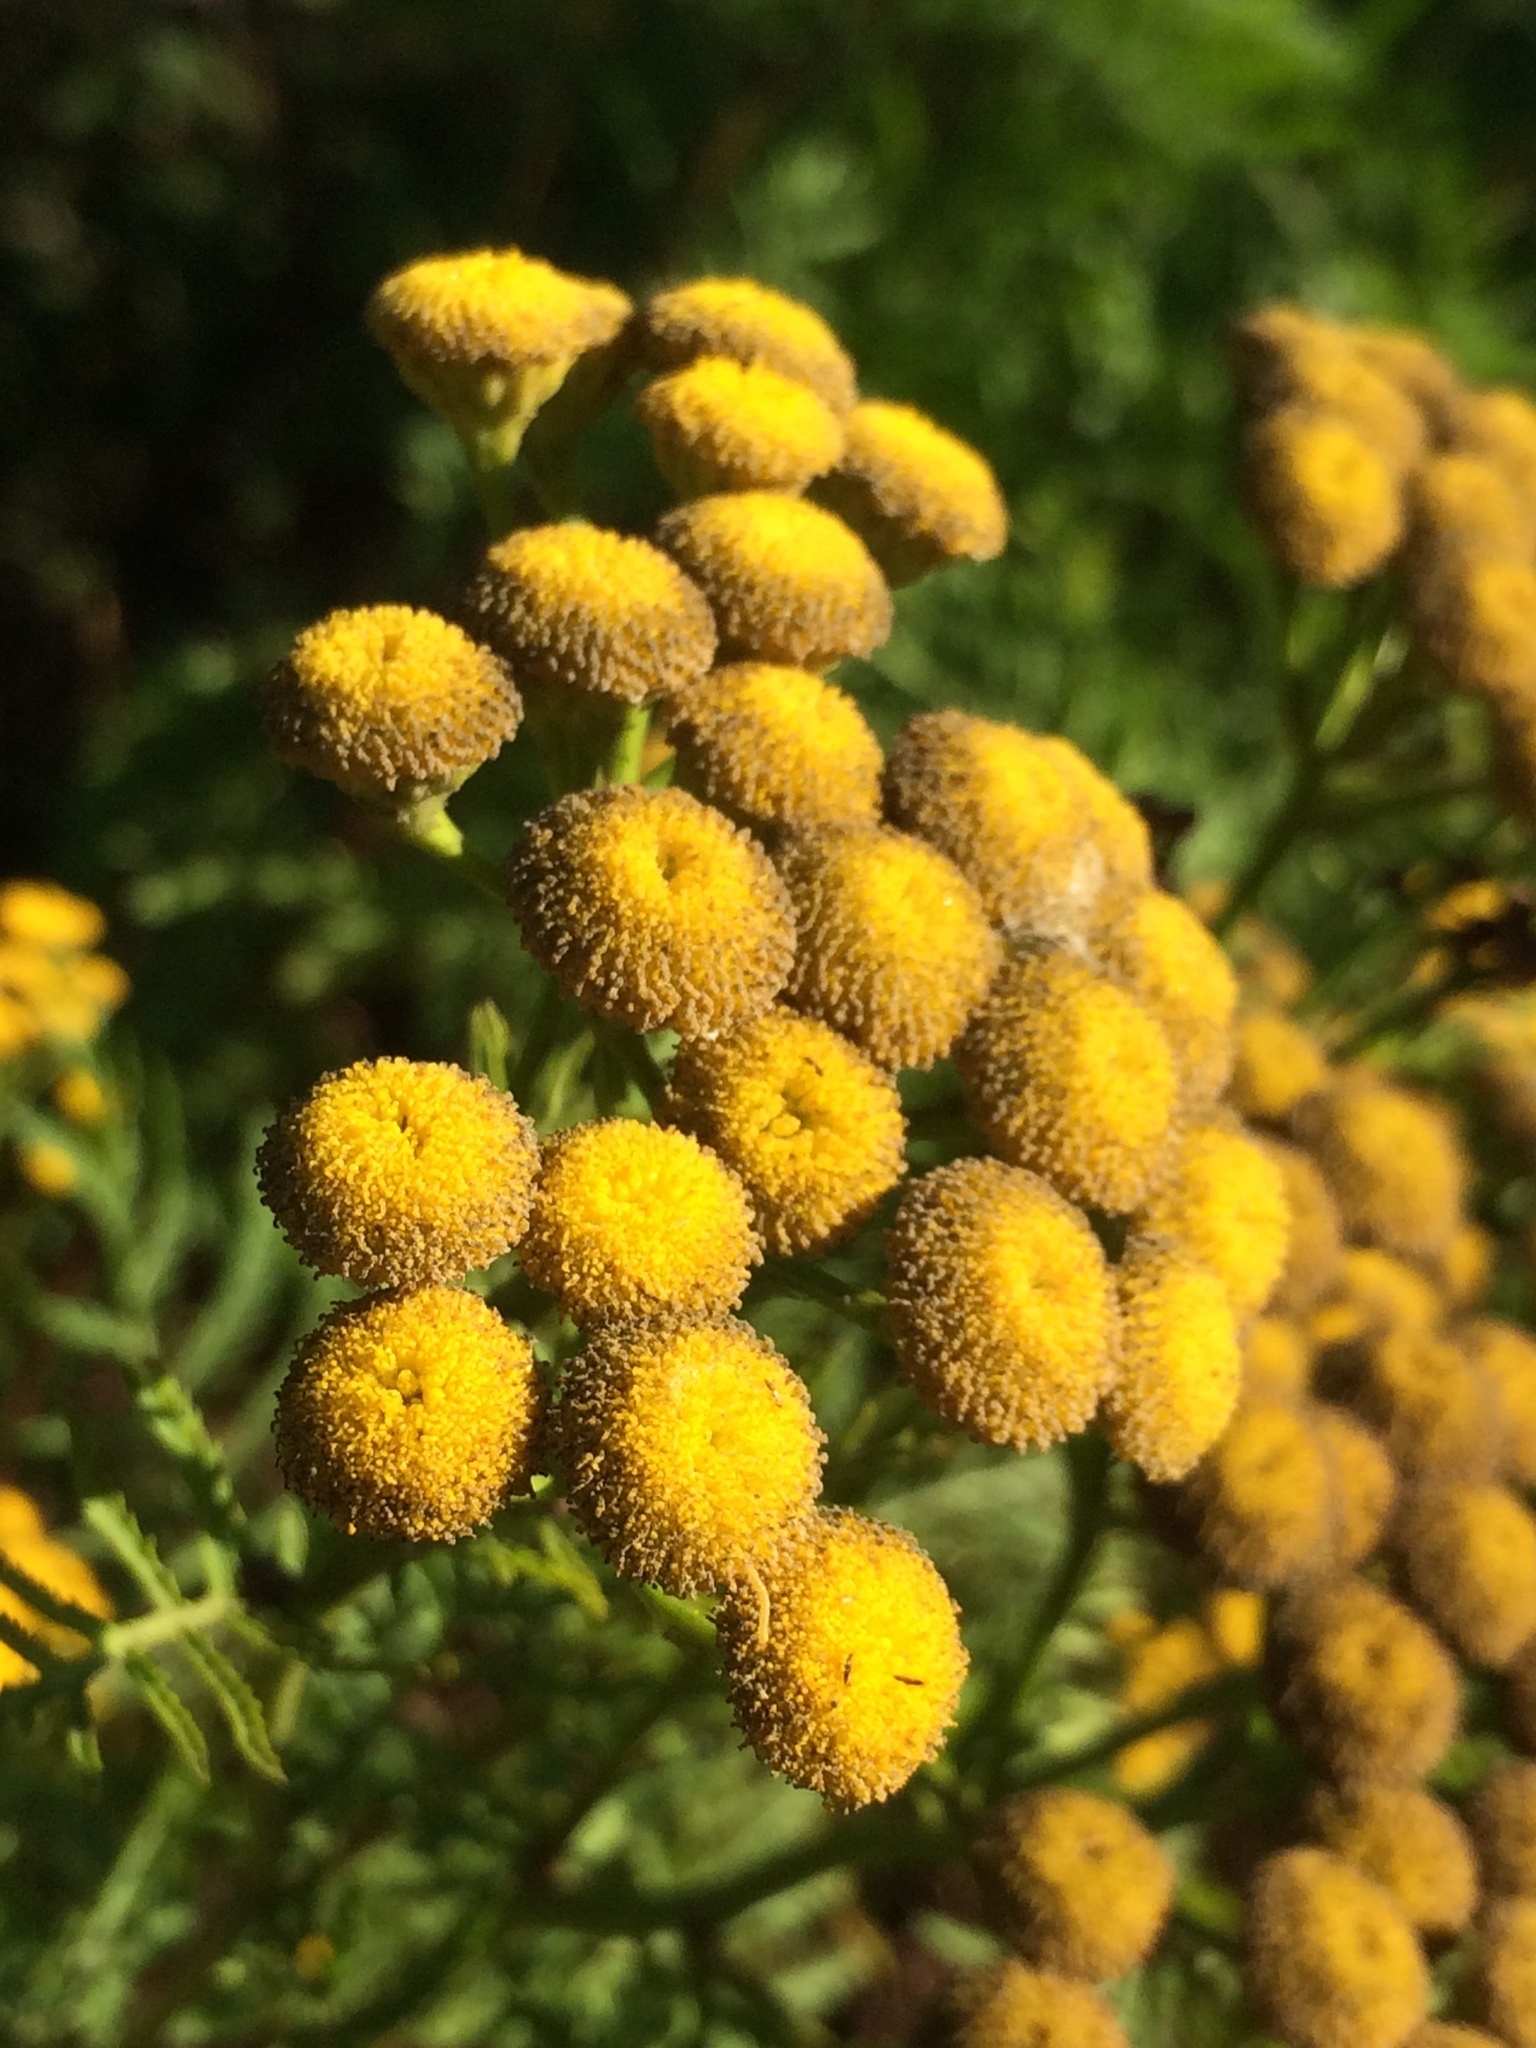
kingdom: Plantae
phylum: Tracheophyta
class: Magnoliopsida
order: Asterales
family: Asteraceae
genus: Tanacetum
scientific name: Tanacetum vulgare
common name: Common tansy
